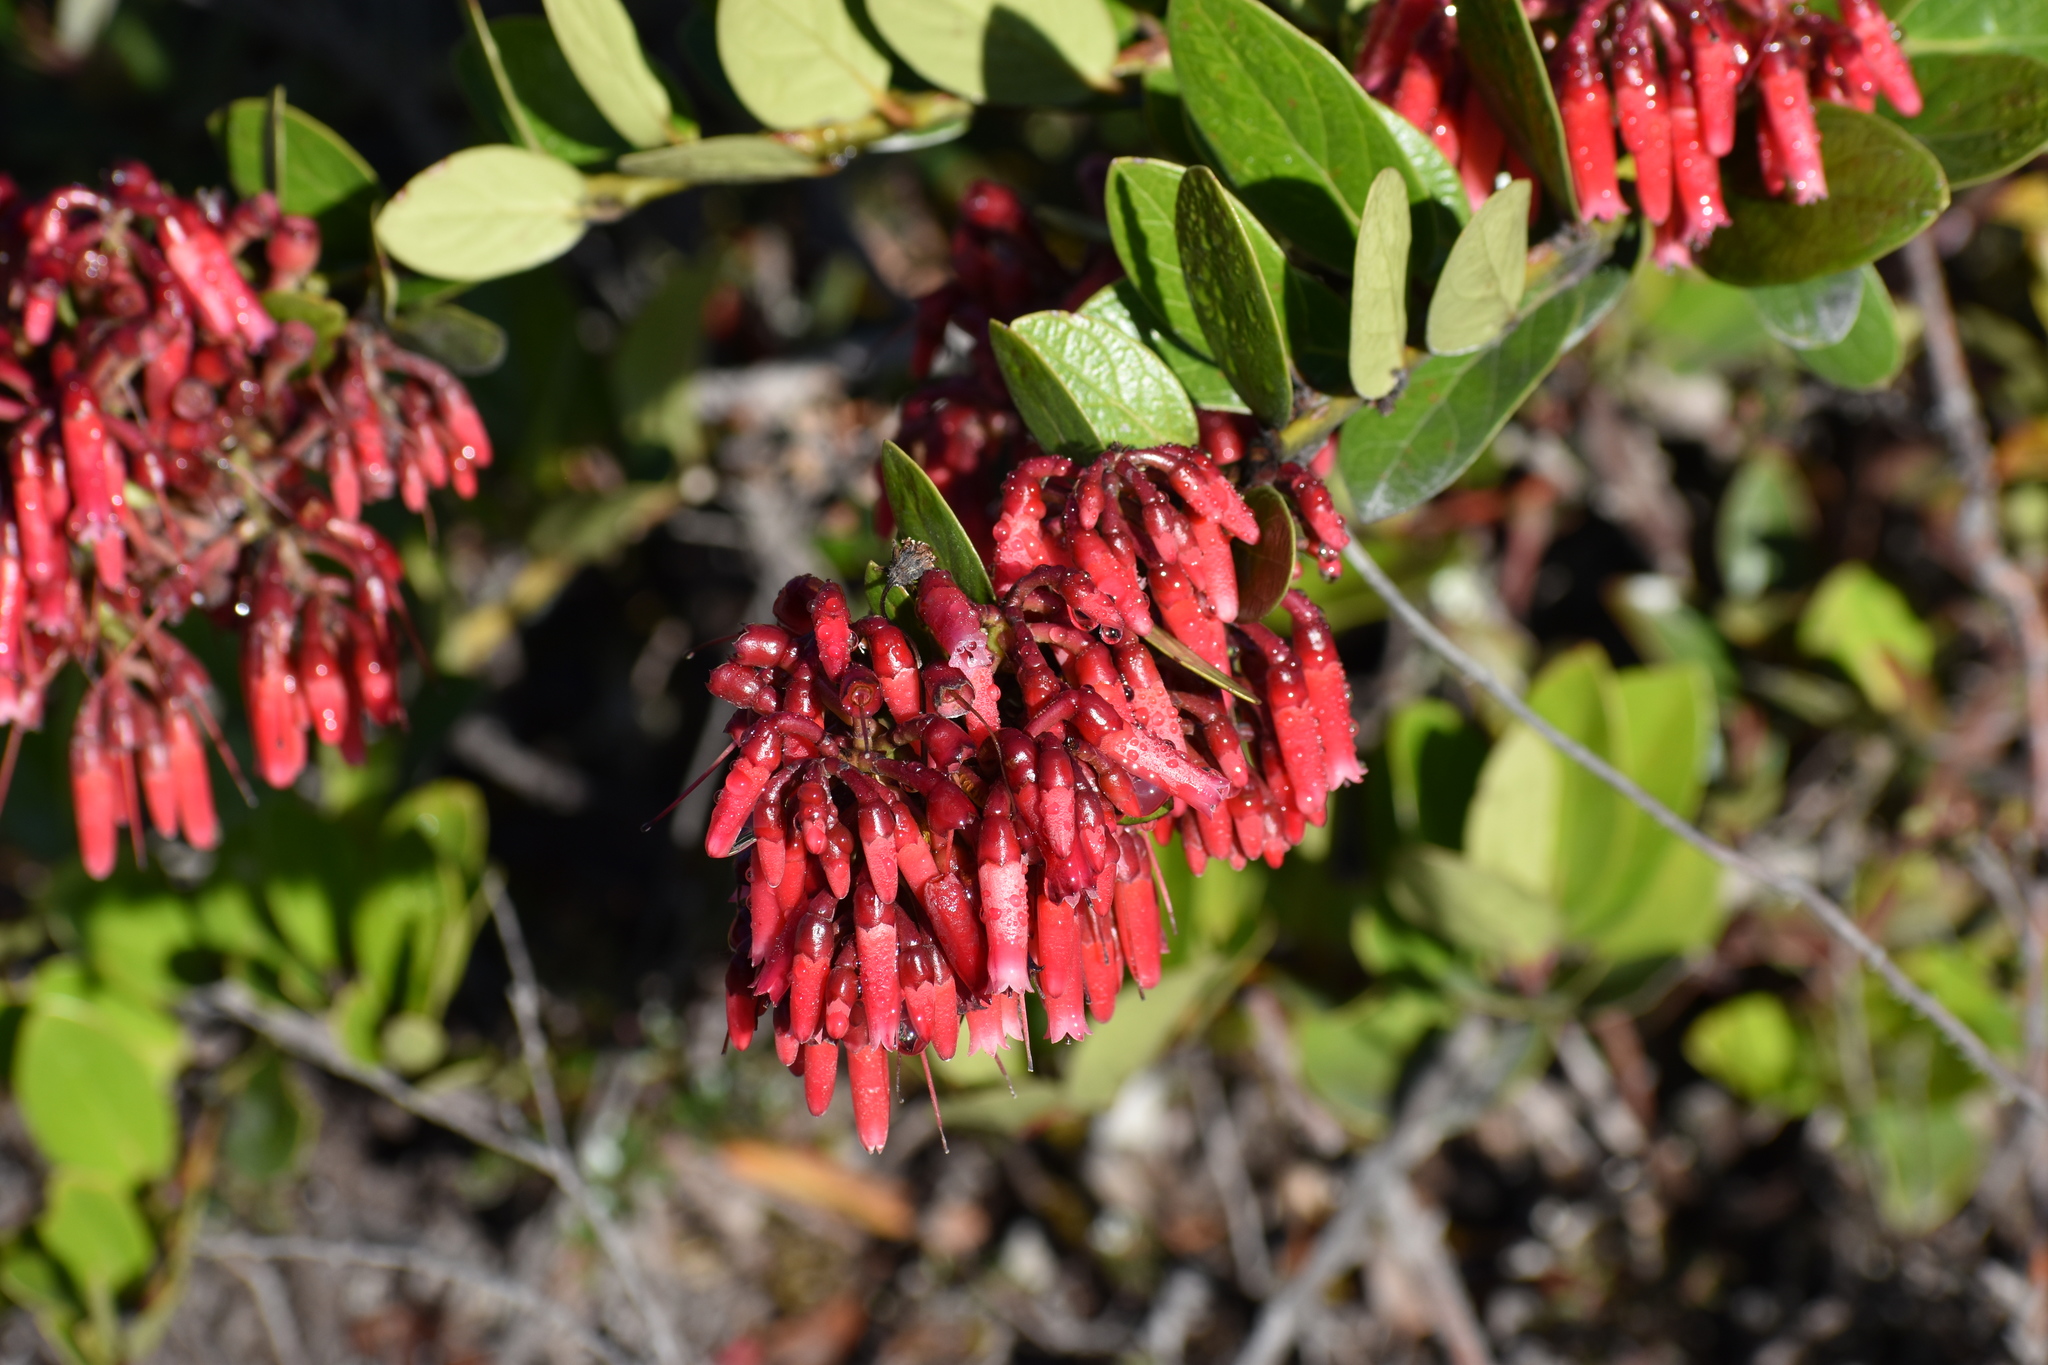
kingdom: Plantae
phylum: Tracheophyta
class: Magnoliopsida
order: Ericales
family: Ericaceae
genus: Macleania
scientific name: Macleania rupestris
